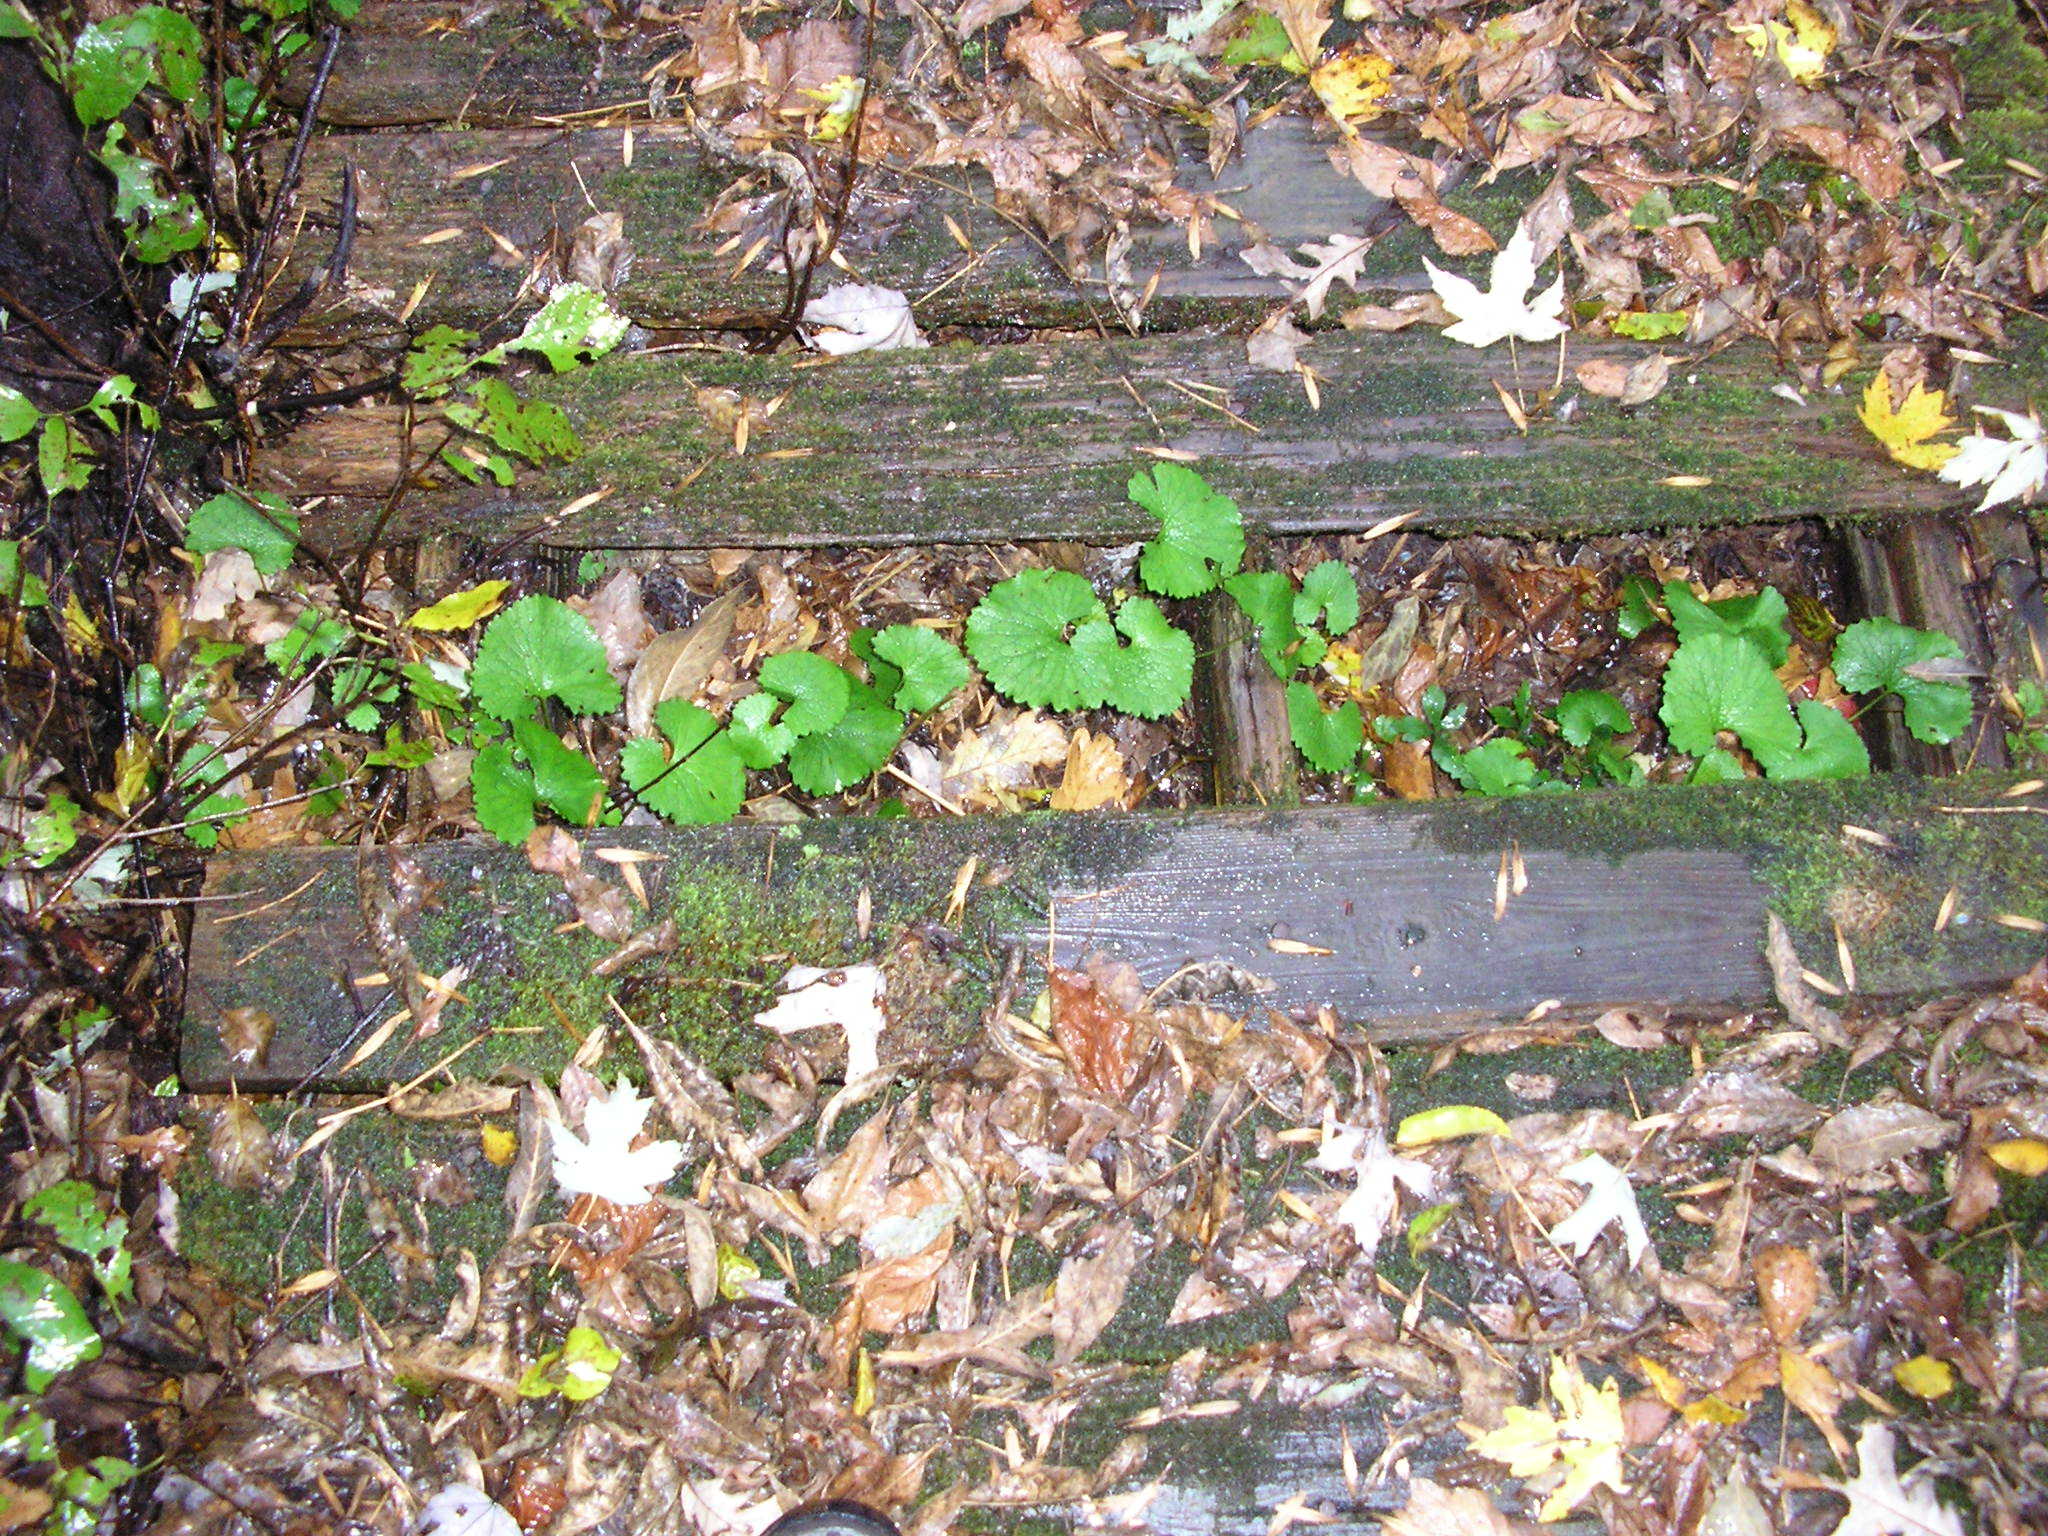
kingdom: Plantae
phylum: Tracheophyta
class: Magnoliopsida
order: Brassicales
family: Brassicaceae
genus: Alliaria
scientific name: Alliaria petiolata
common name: Garlic mustard
